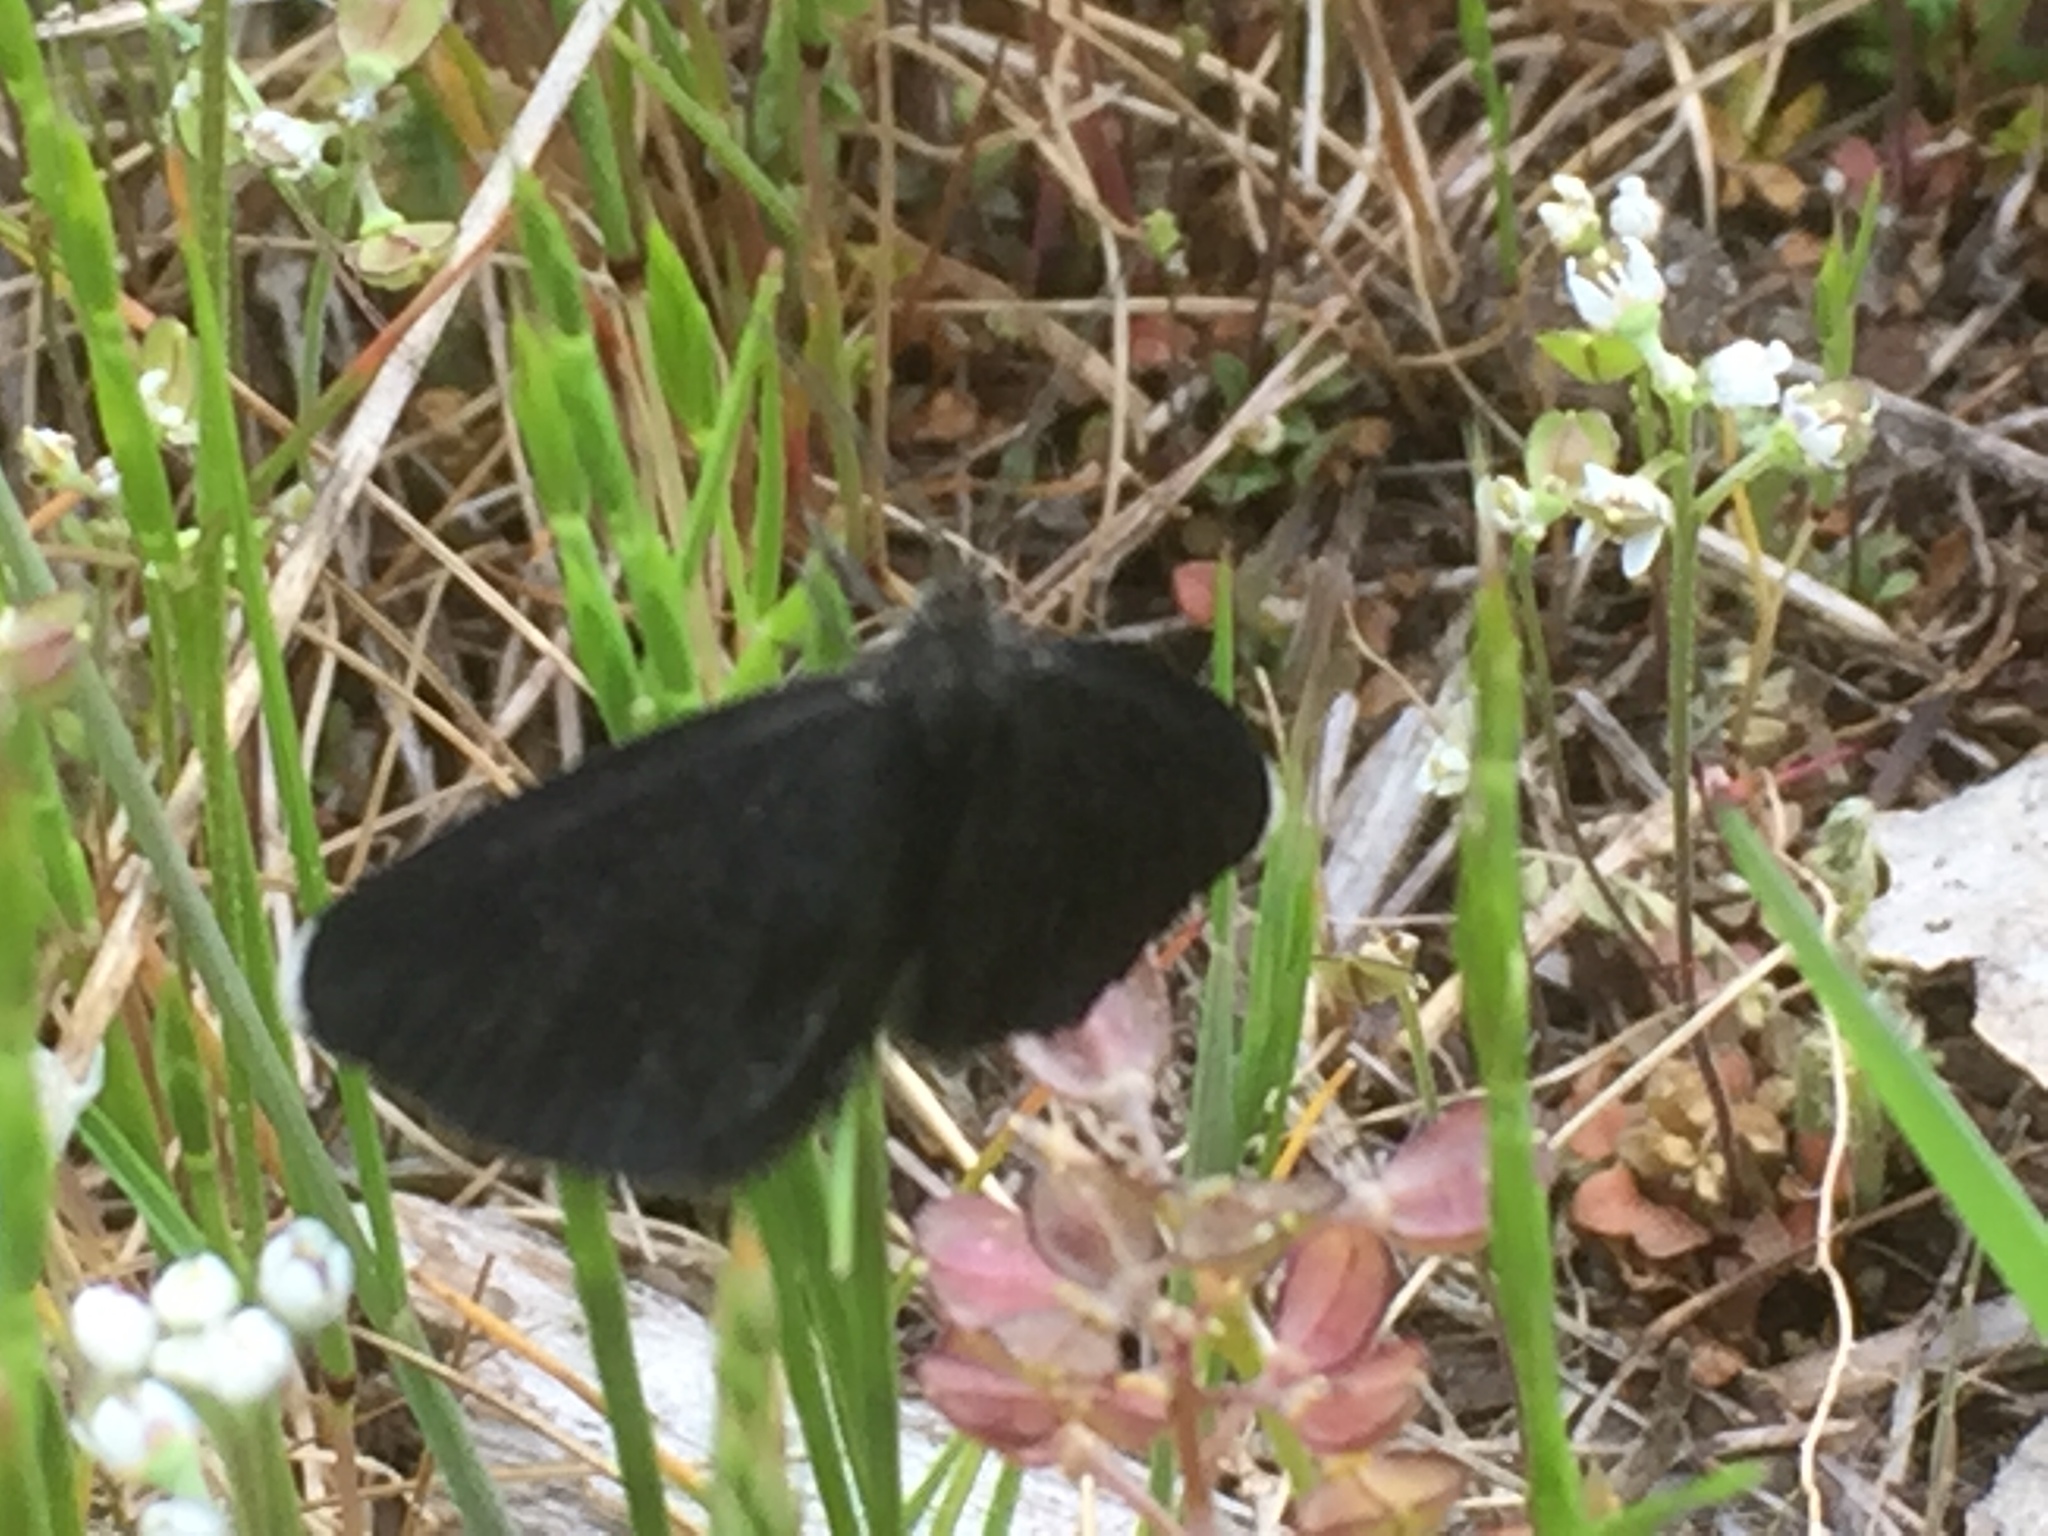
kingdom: Animalia
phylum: Arthropoda
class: Insecta
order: Lepidoptera
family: Geometridae
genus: Odezia
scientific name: Odezia atrata
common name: Chimney sweeper
